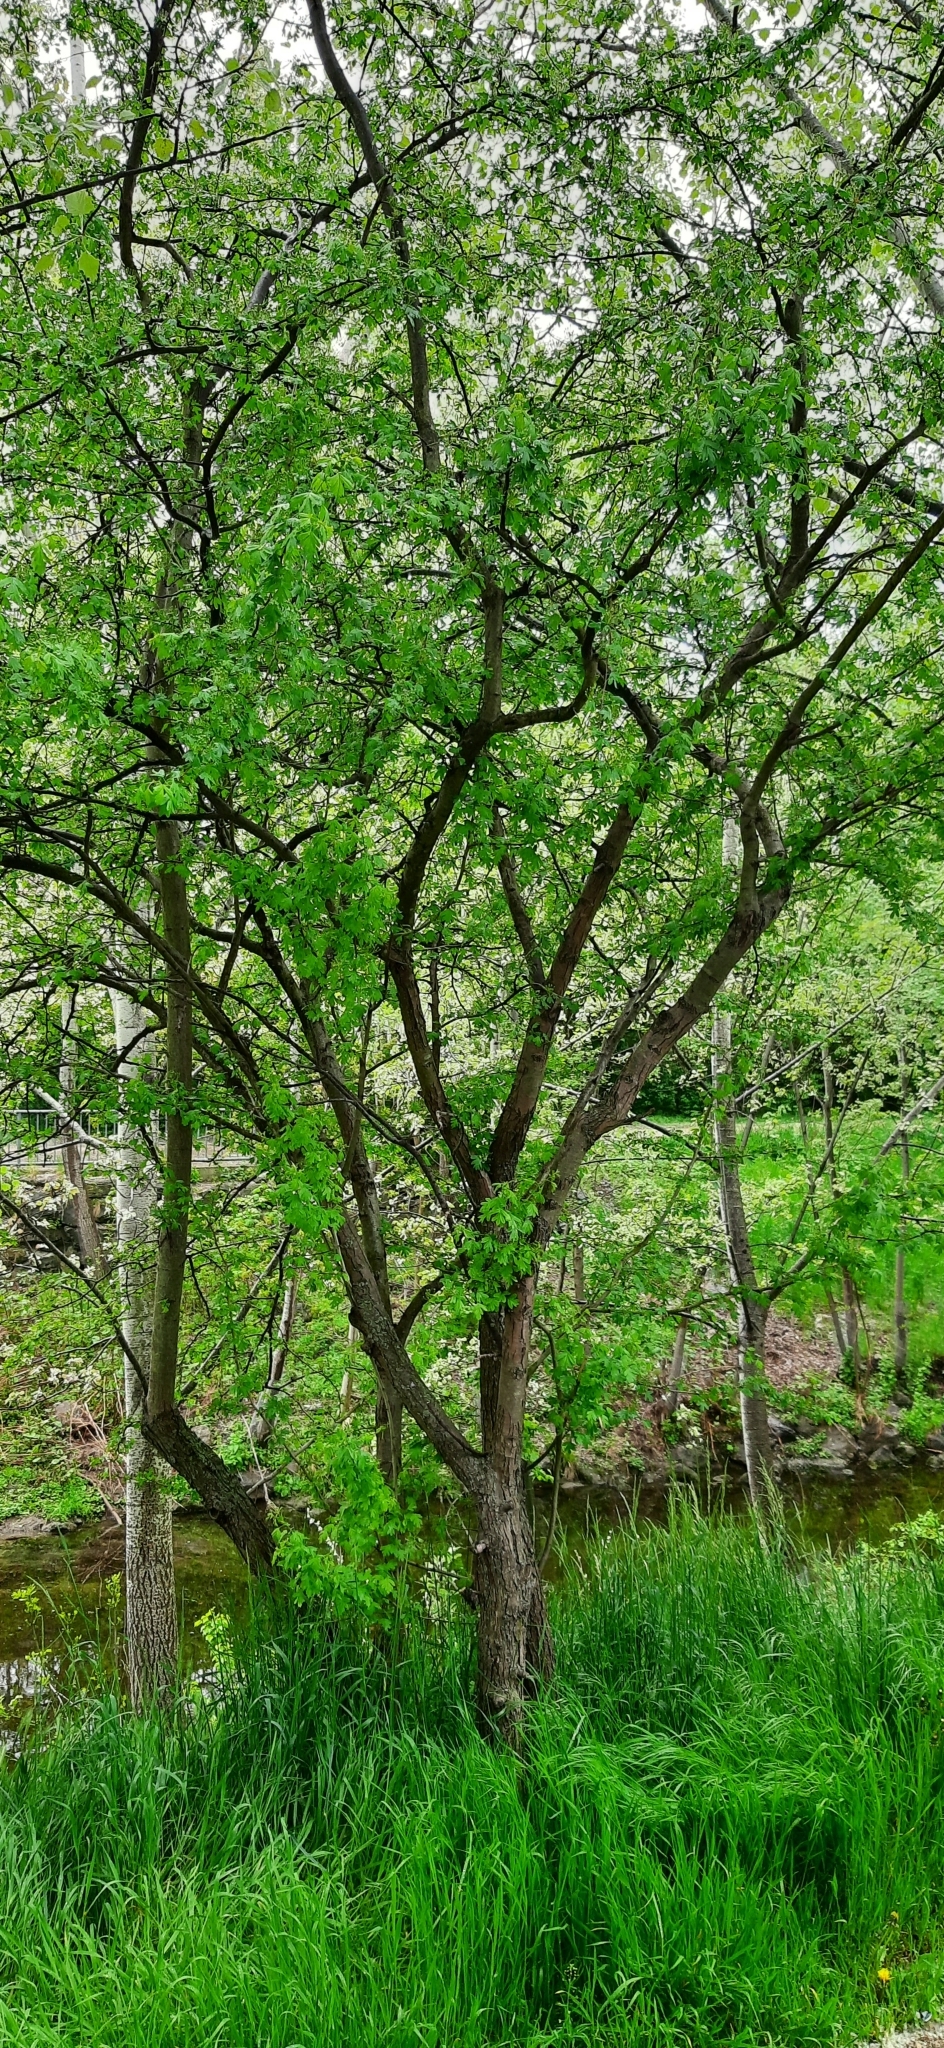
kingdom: Plantae
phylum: Tracheophyta
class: Magnoliopsida
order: Rosales
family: Rosaceae
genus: Crataegus
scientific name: Crataegus
